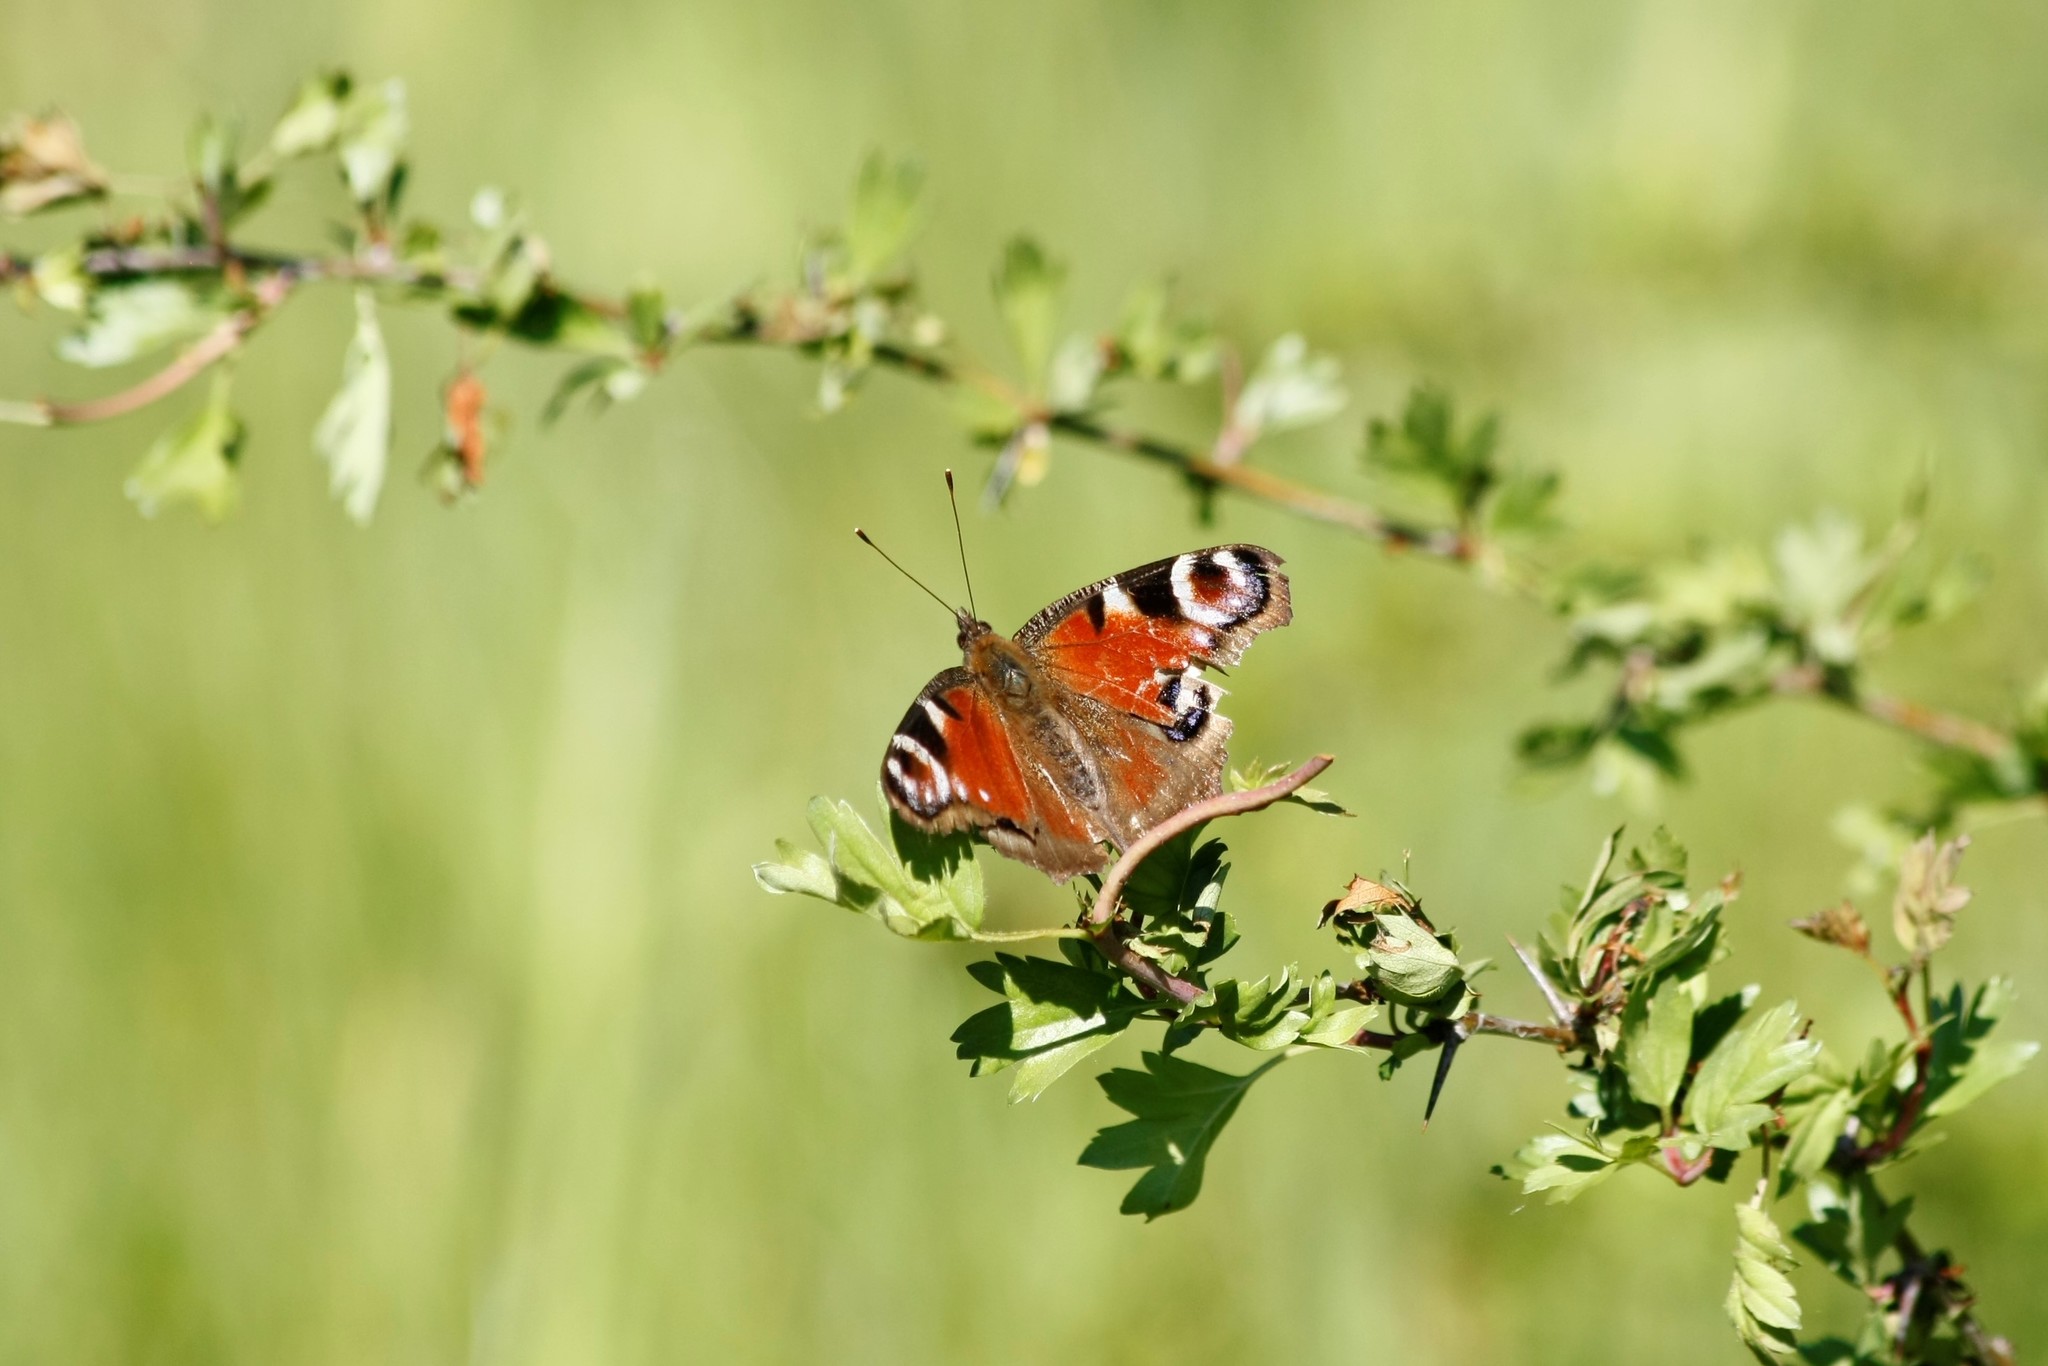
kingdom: Animalia
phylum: Arthropoda
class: Insecta
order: Lepidoptera
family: Nymphalidae
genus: Aglais
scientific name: Aglais io
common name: Peacock
